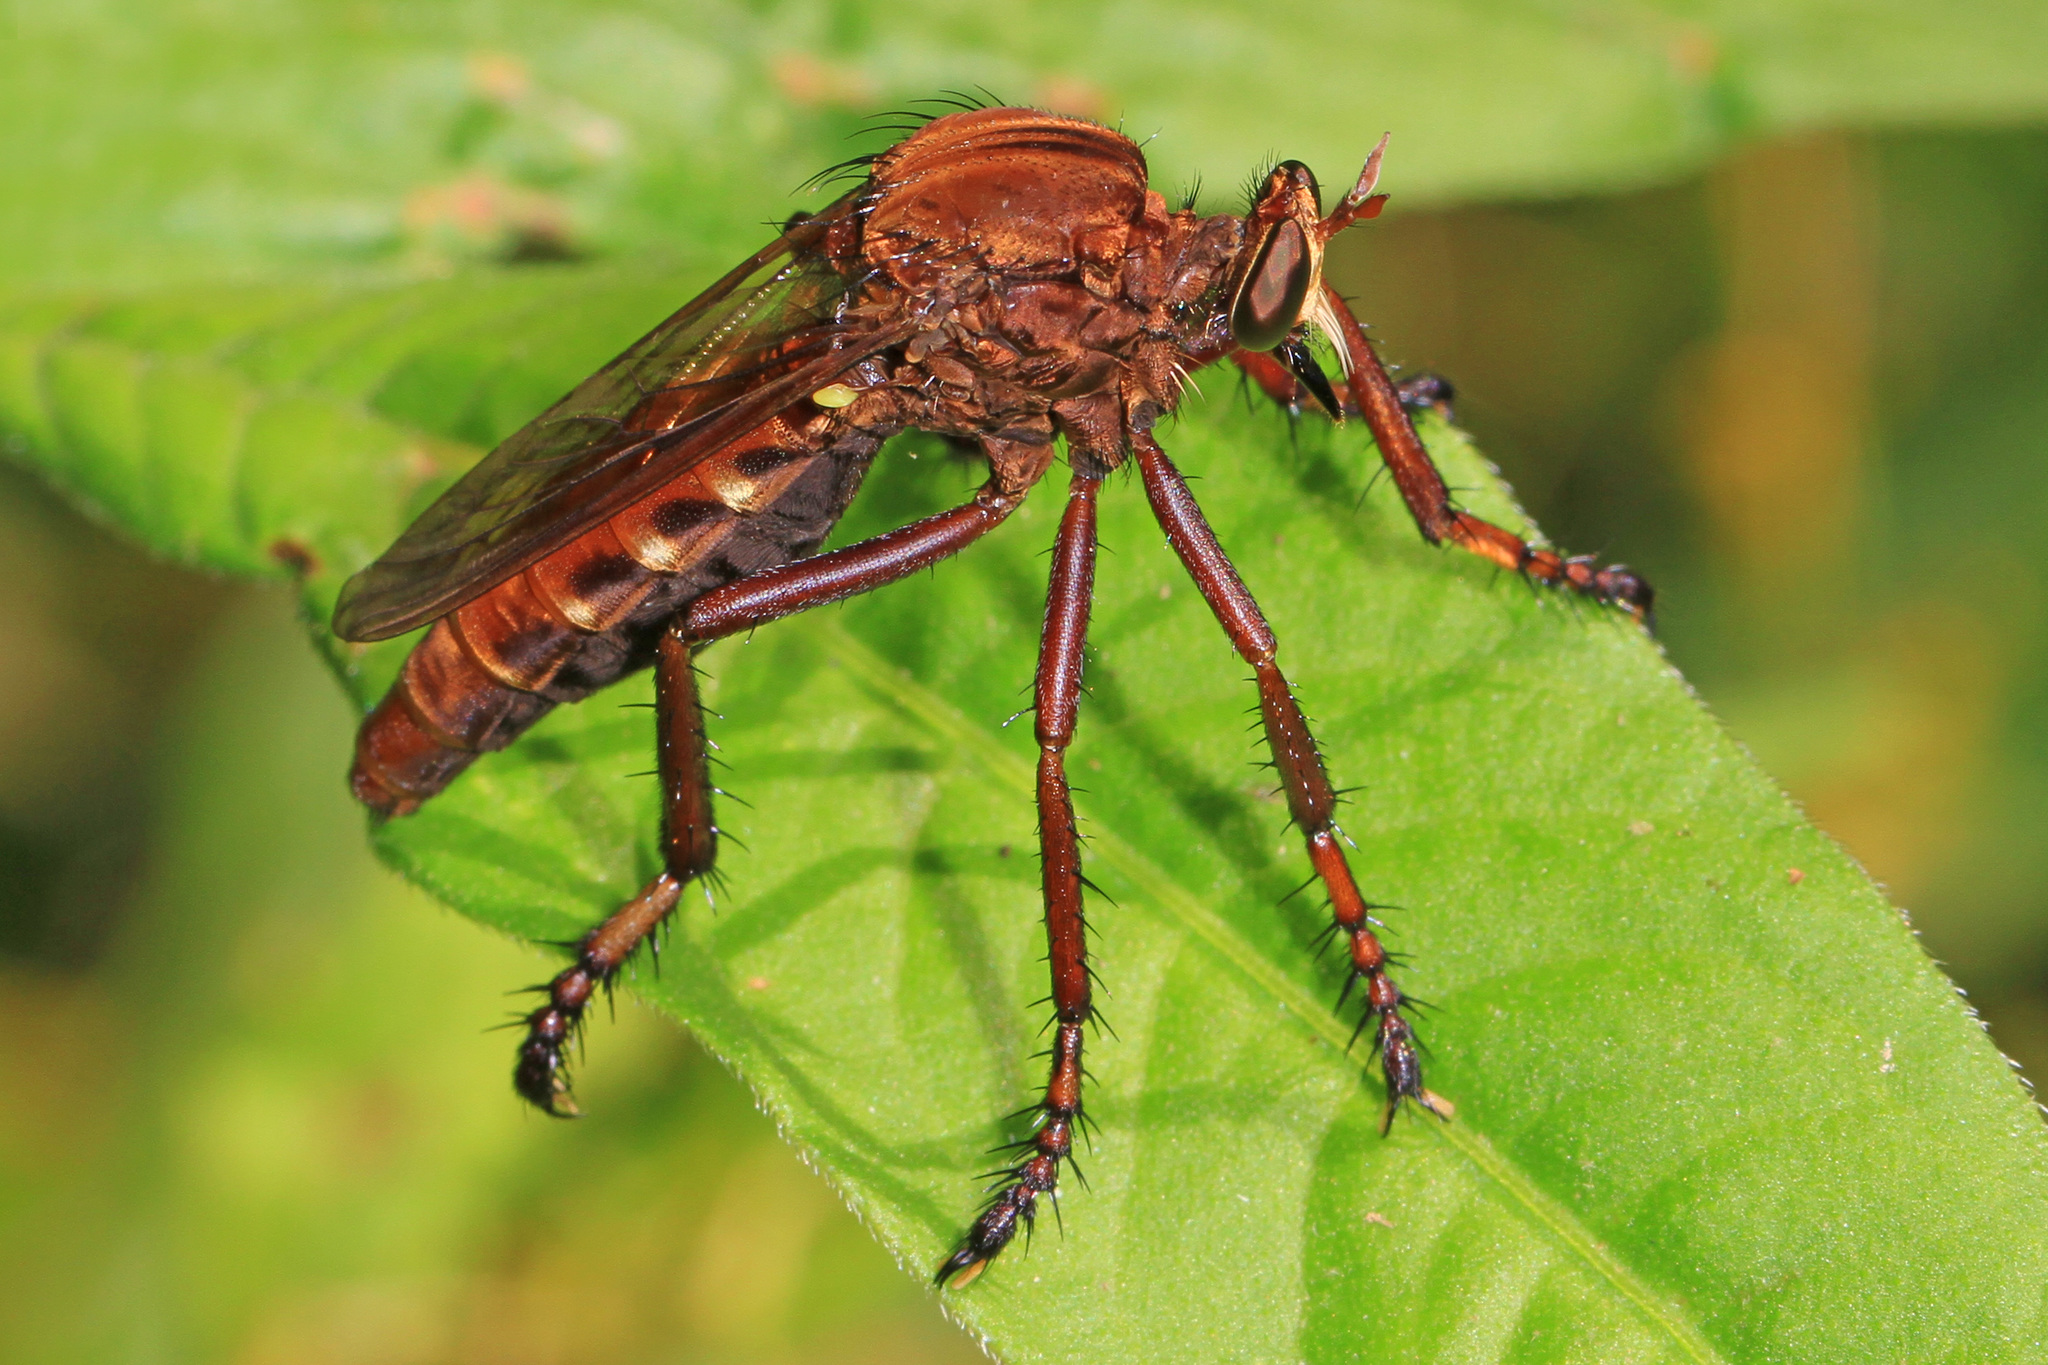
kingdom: Animalia
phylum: Arthropoda
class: Insecta
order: Diptera
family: Asilidae
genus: Diogmites
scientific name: Diogmites basalis
